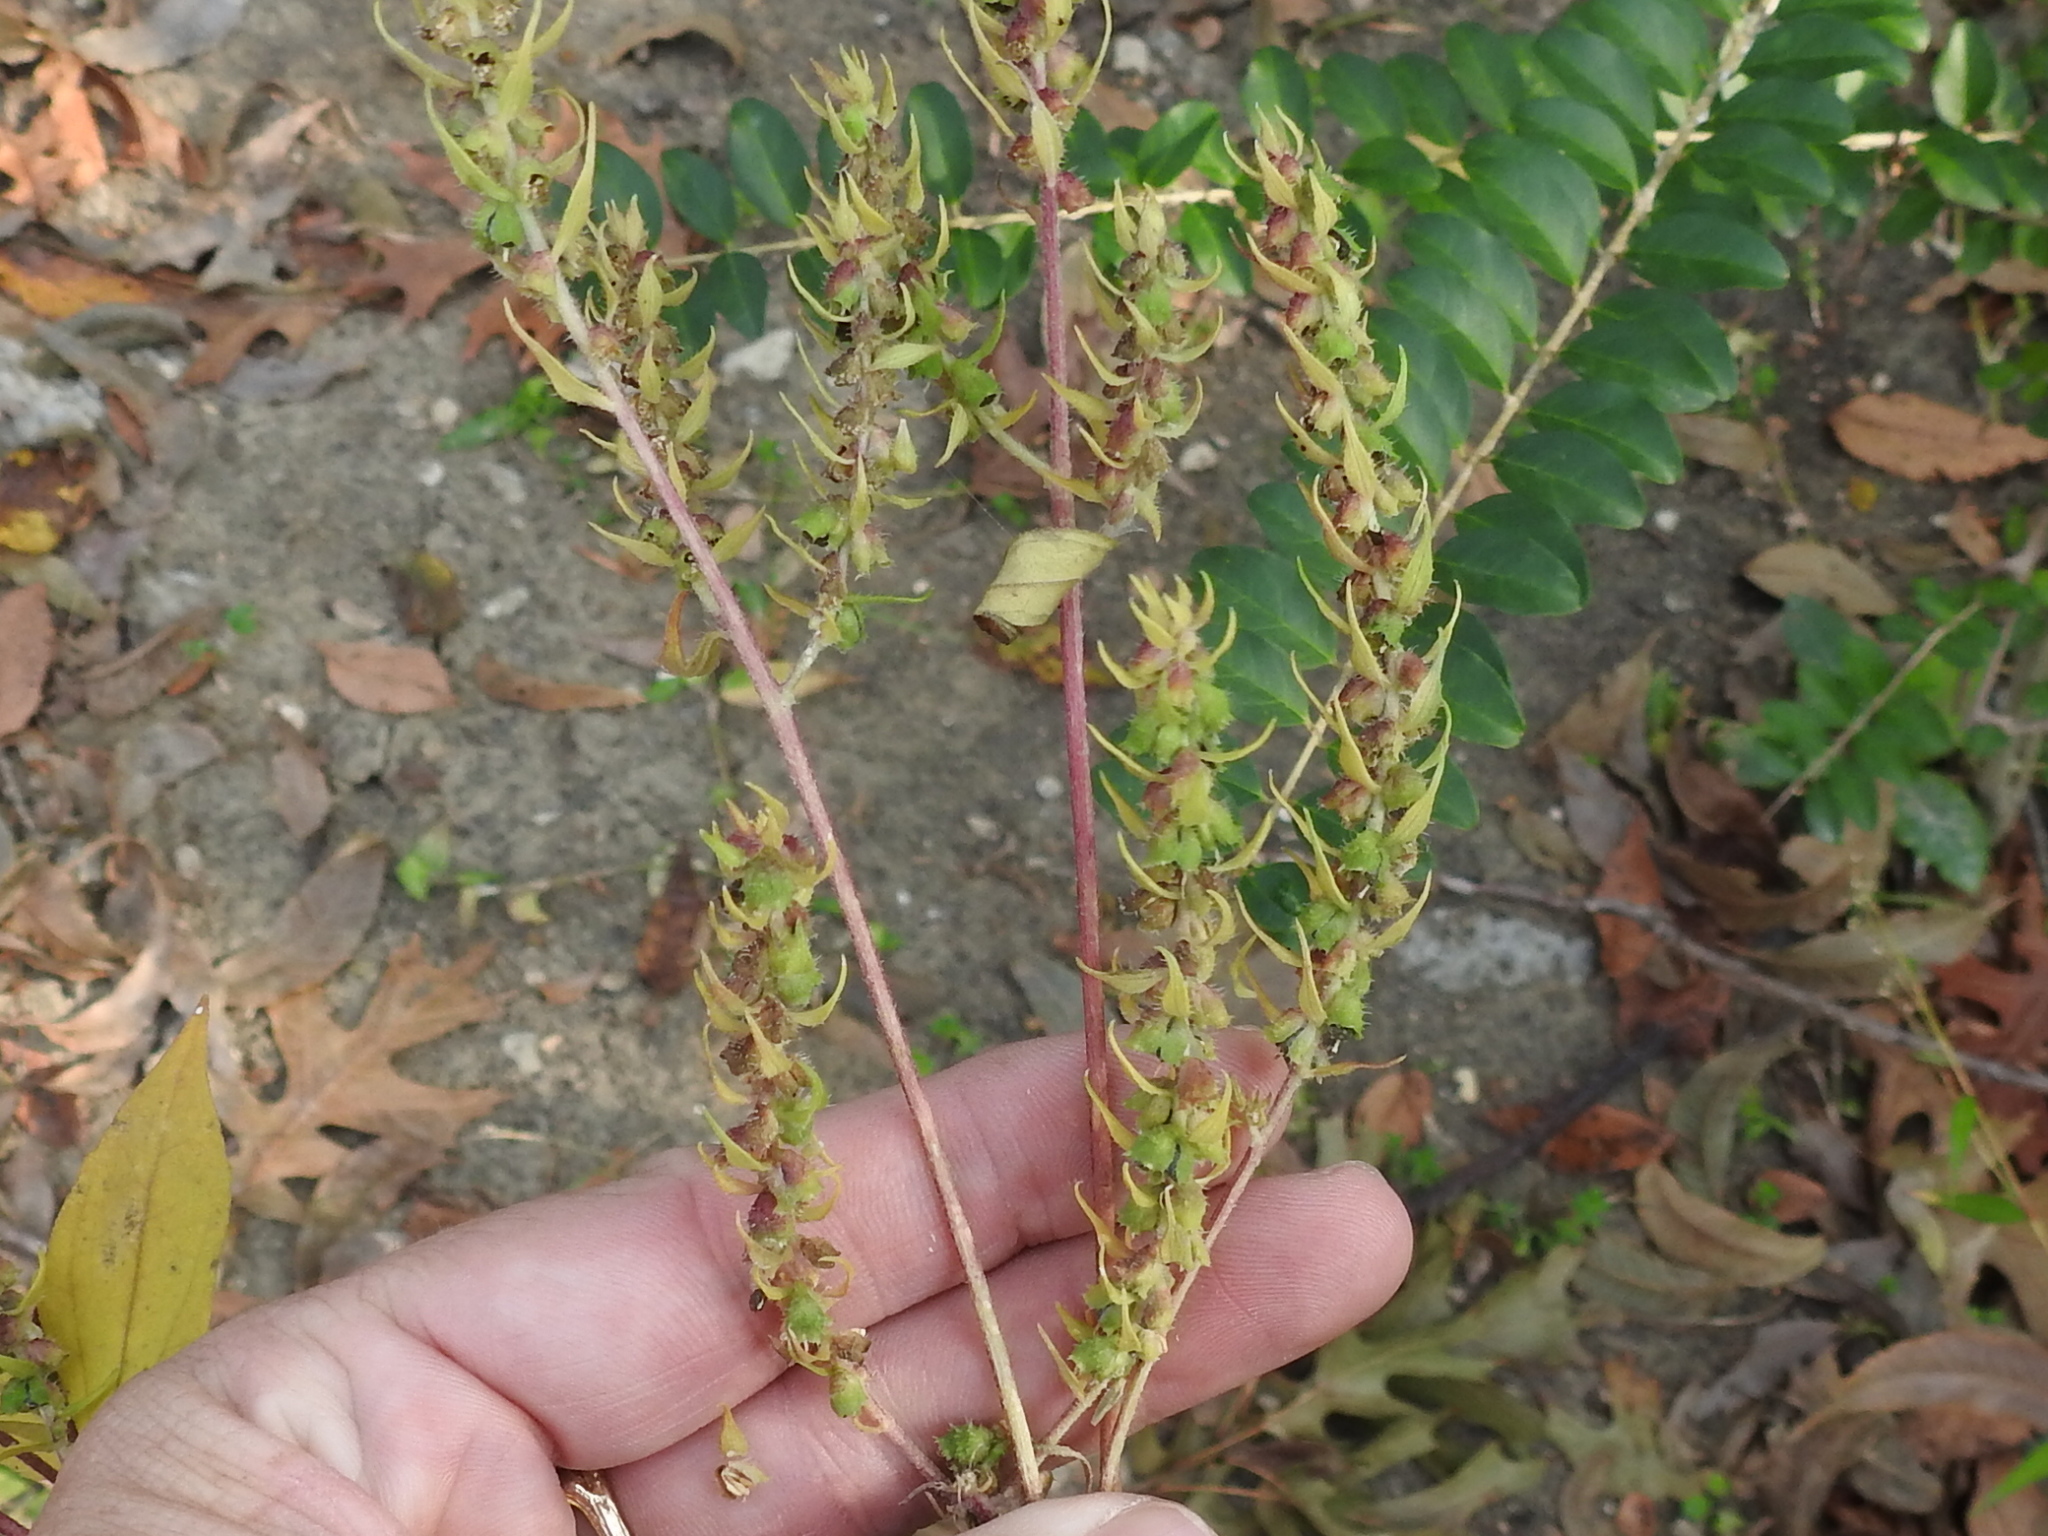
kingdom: Plantae
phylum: Tracheophyta
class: Magnoliopsida
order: Asterales
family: Asteraceae
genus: Iva
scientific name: Iva annua
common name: Marsh-elder
